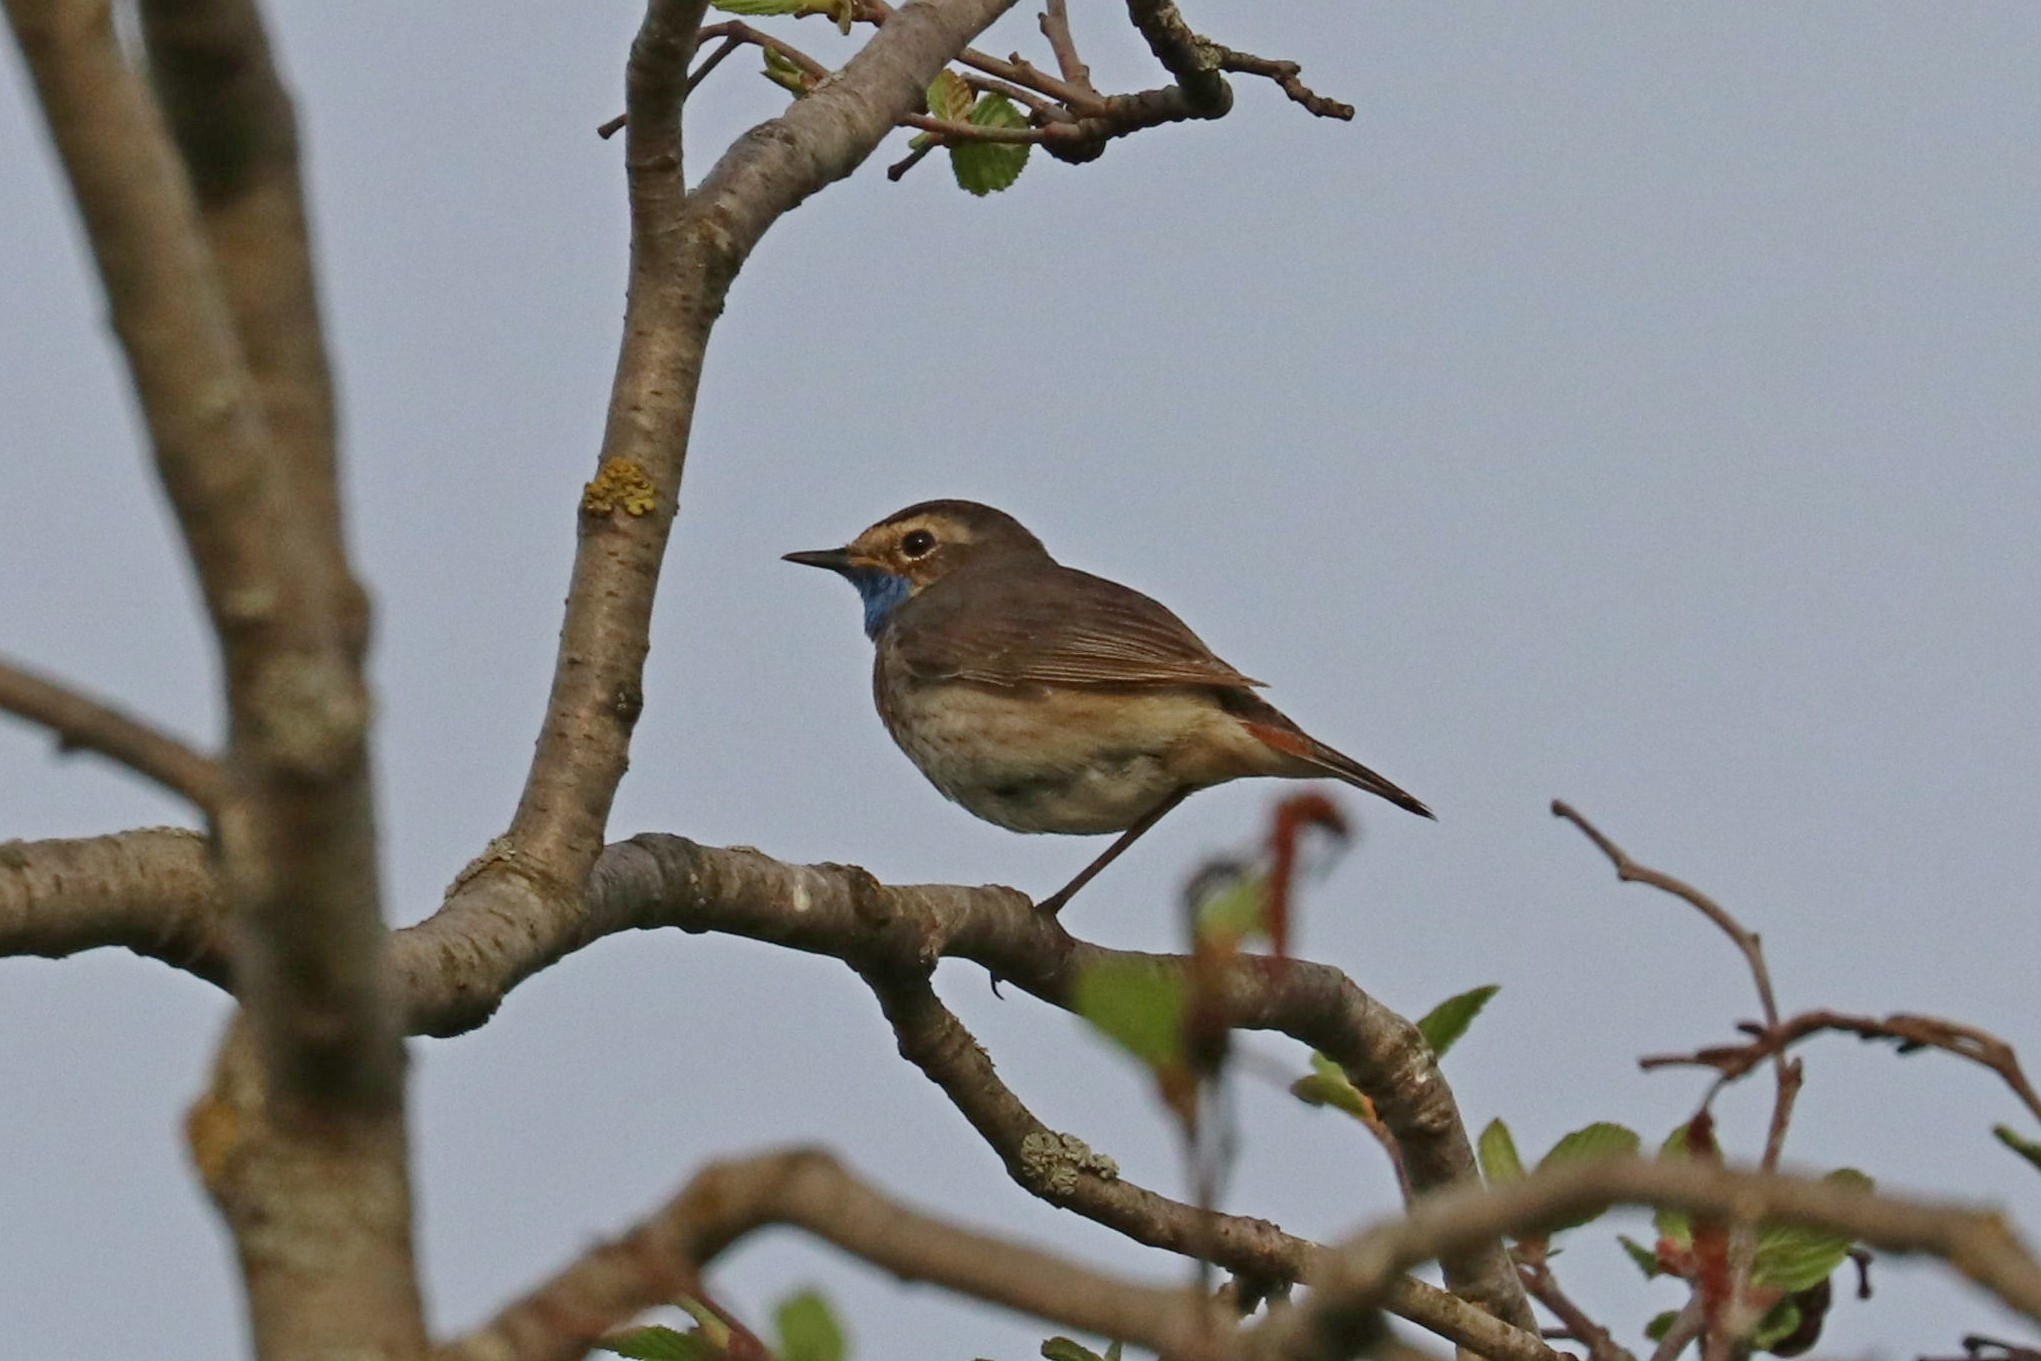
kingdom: Animalia
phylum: Chordata
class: Aves
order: Passeriformes
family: Muscicapidae
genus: Luscinia
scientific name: Luscinia svecica
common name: Bluethroat
